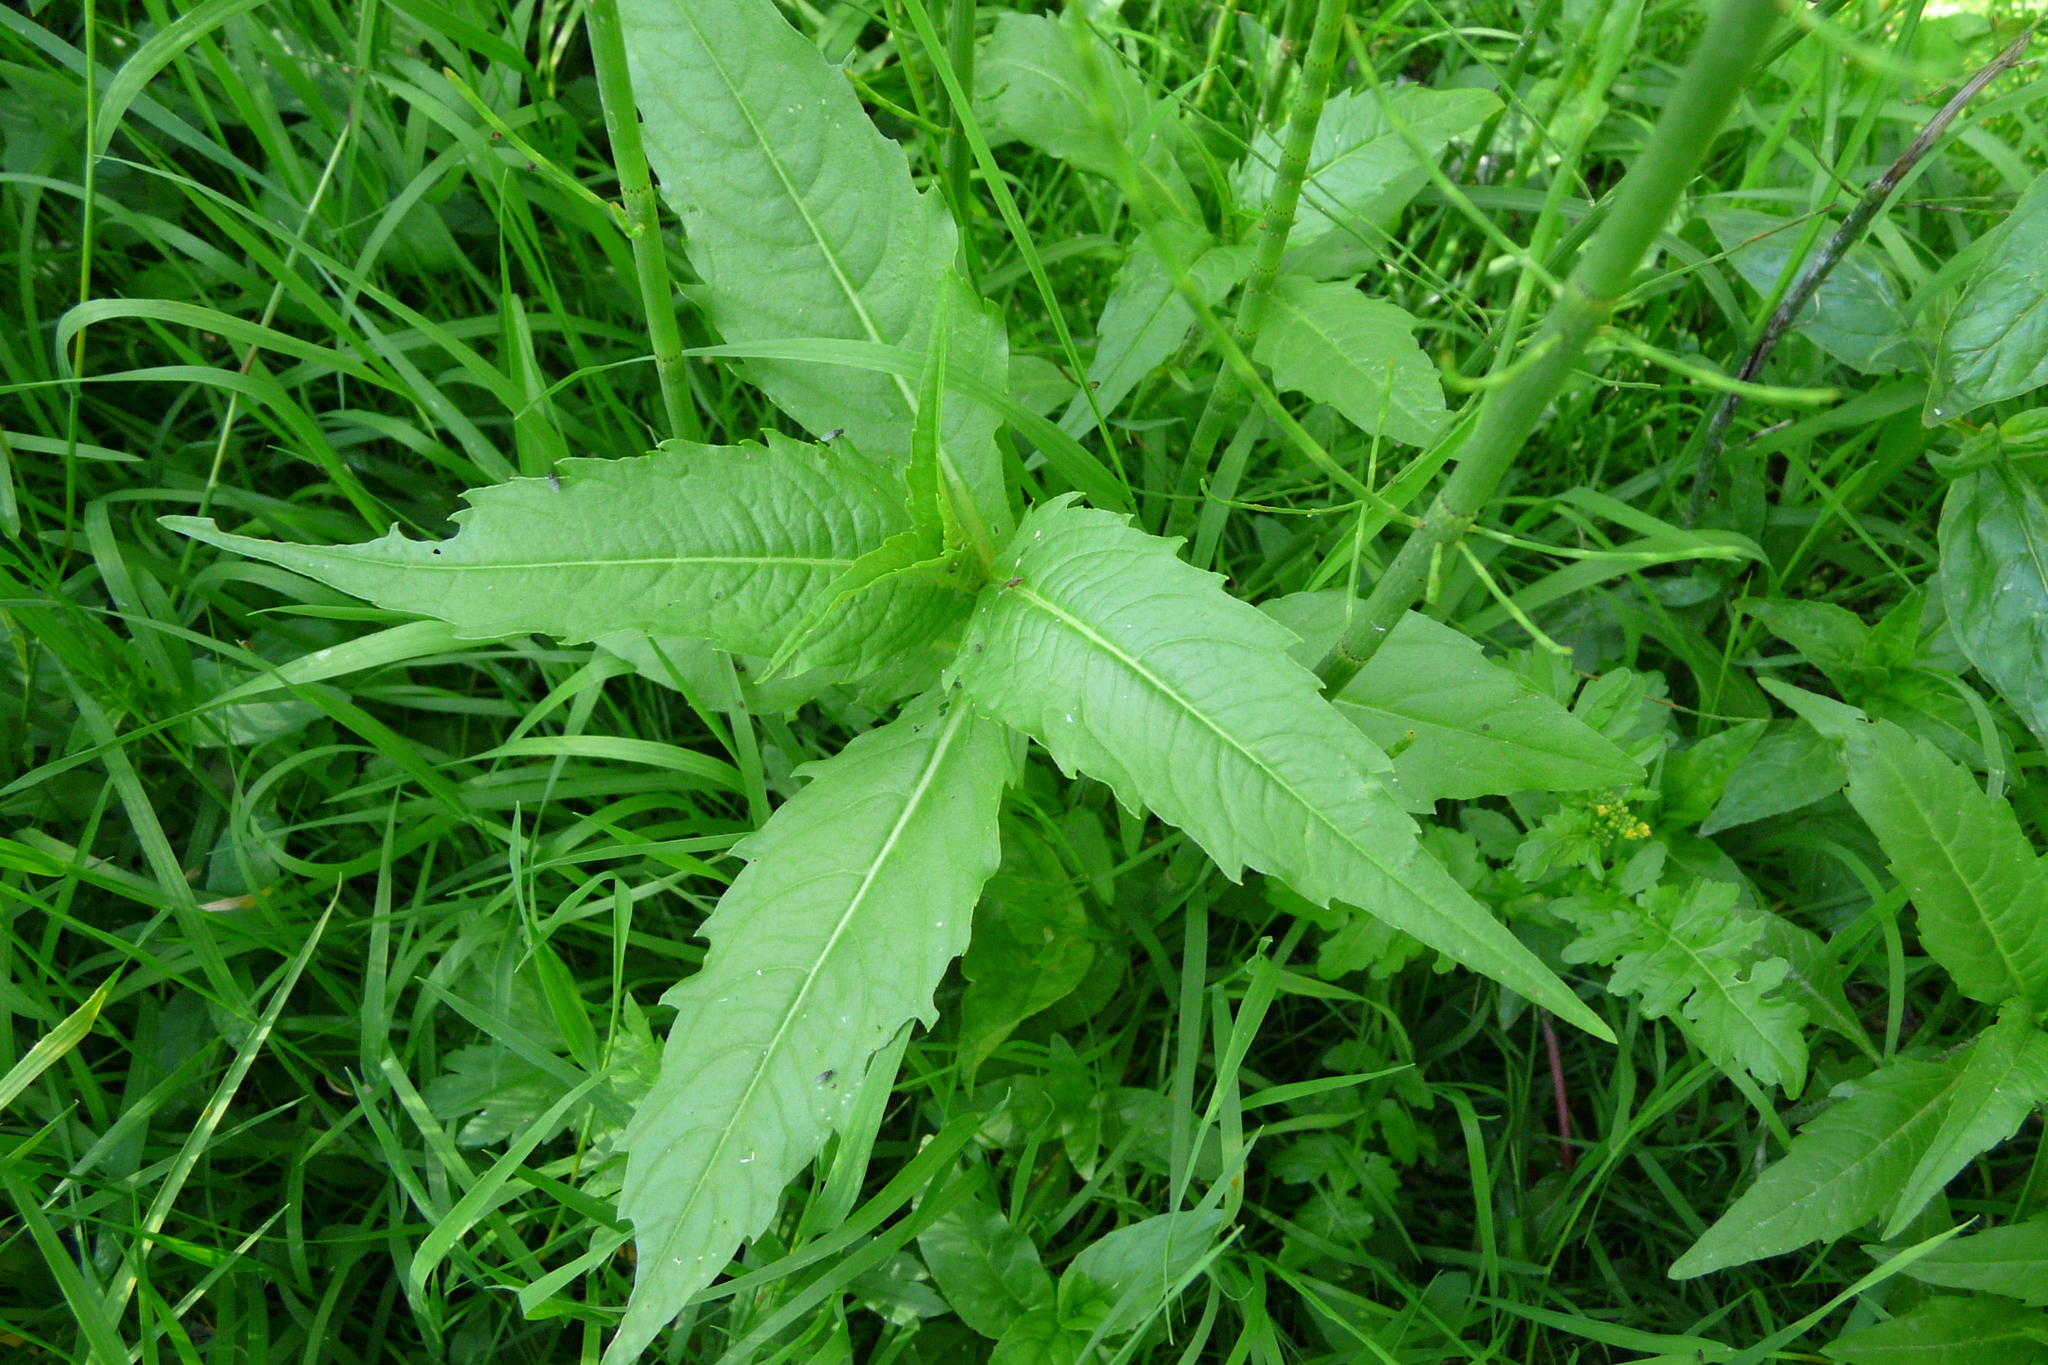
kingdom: Plantae
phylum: Tracheophyta
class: Magnoliopsida
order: Asterales
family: Asteraceae
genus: Bidens
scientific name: Bidens cernua
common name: Nodding bur-marigold
